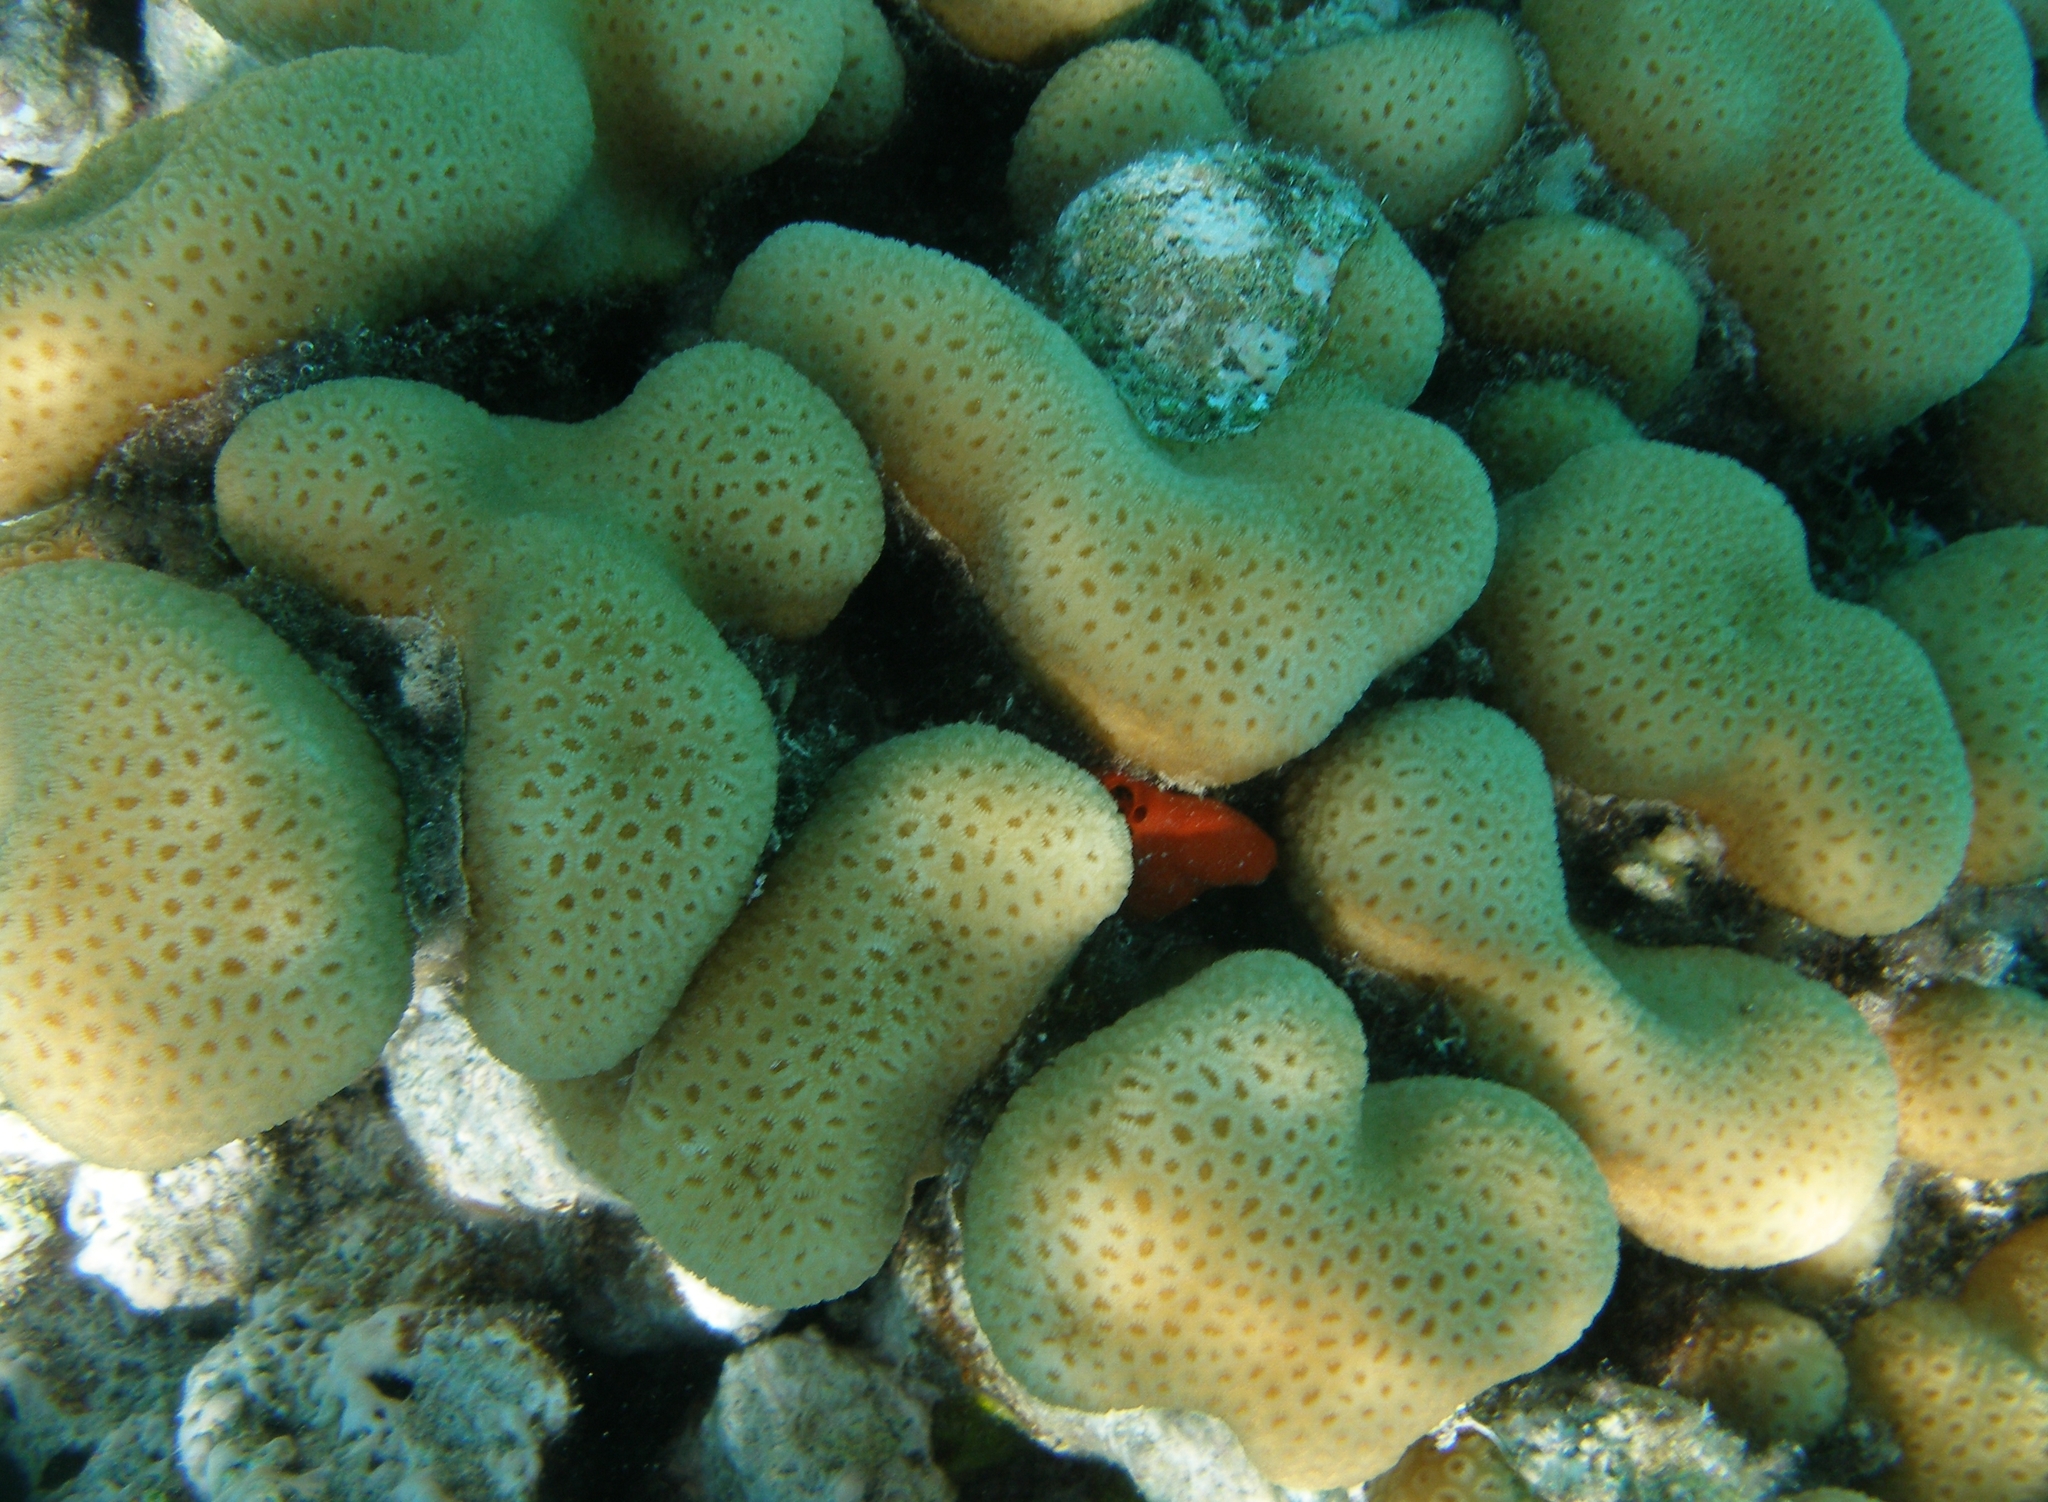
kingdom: Animalia
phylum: Cnidaria
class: Anthozoa
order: Scleractinia
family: Merulinidae
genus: Goniastrea
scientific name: Goniastrea stelligera
